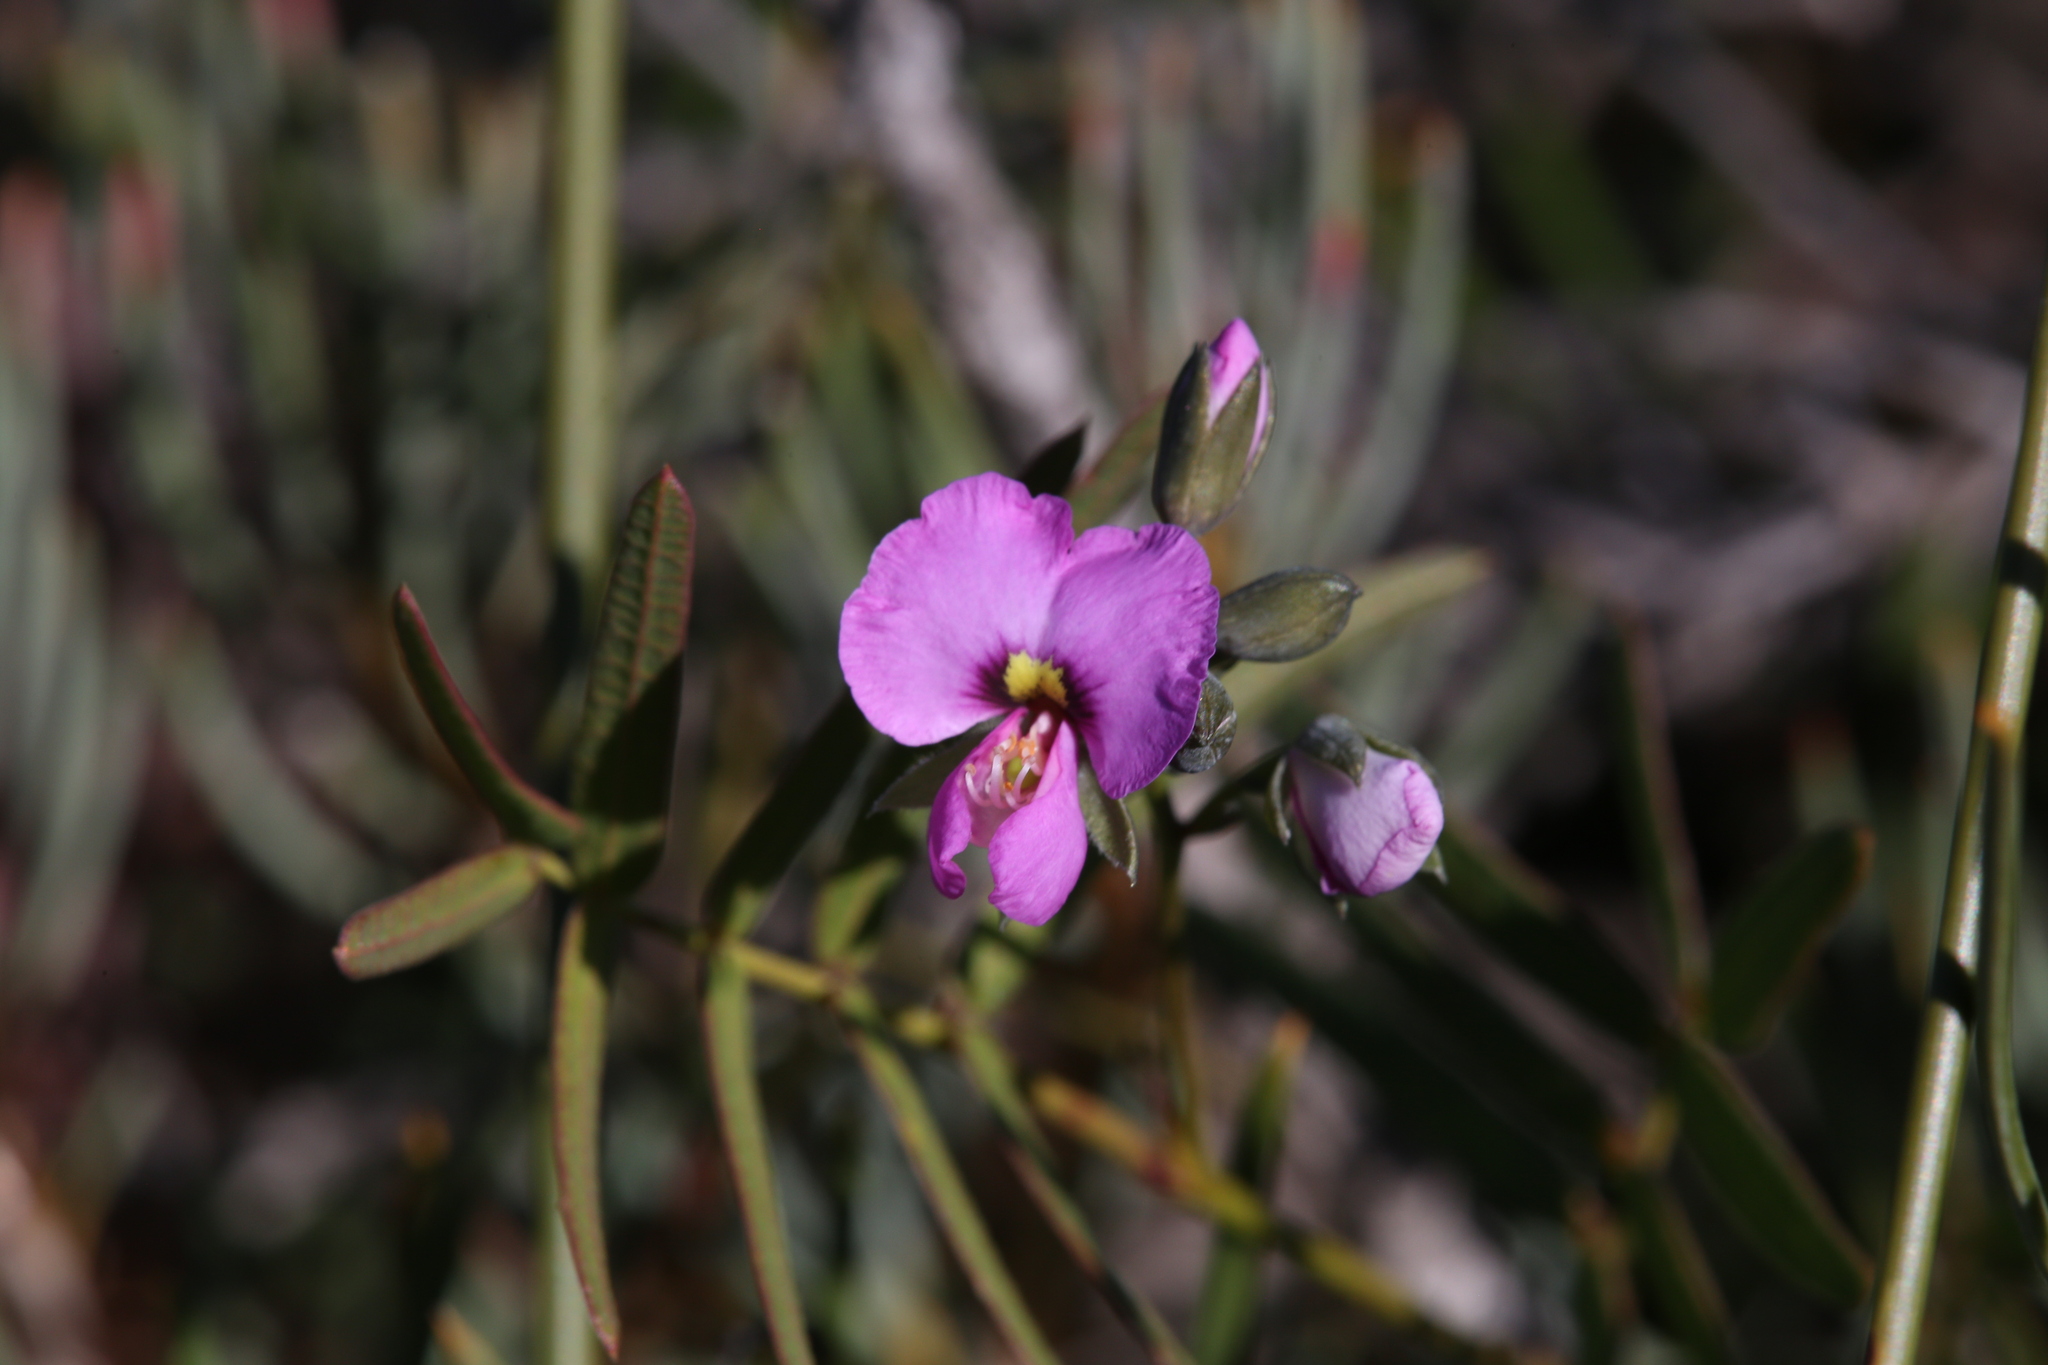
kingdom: Plantae
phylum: Tracheophyta
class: Magnoliopsida
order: Fabales
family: Fabaceae
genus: Gompholobium
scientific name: Gompholobium knightianum
